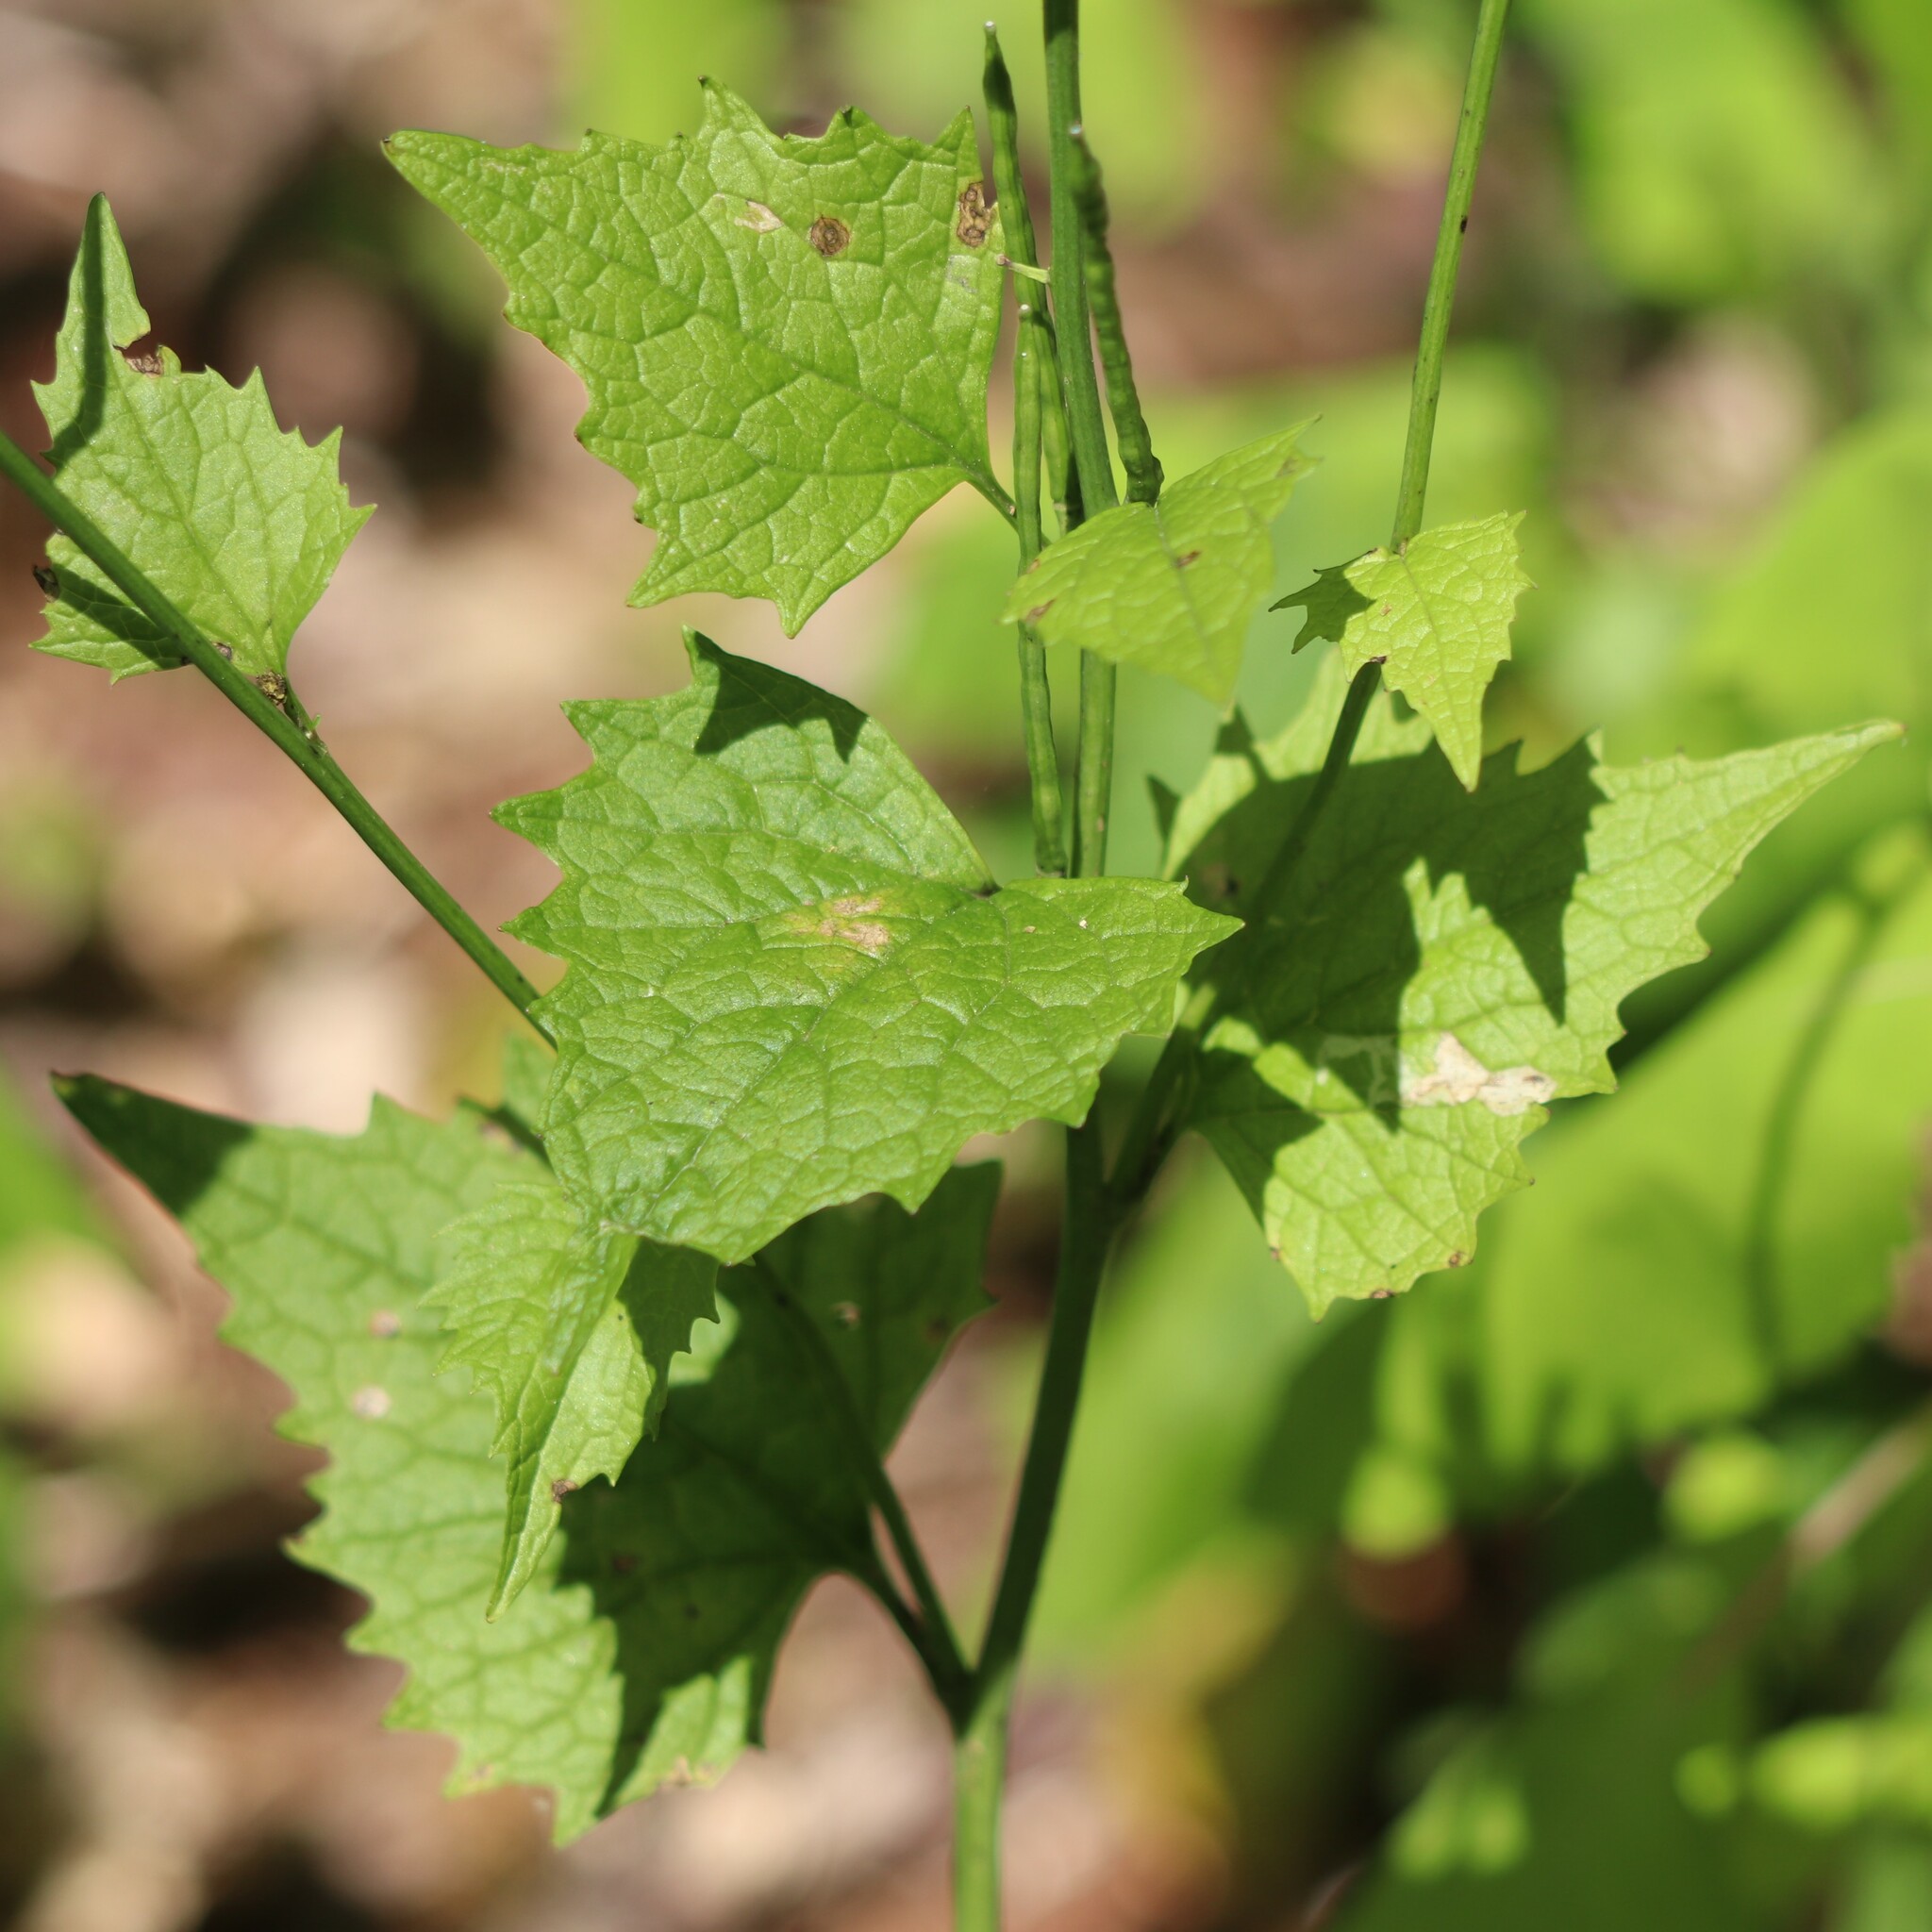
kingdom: Plantae
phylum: Tracheophyta
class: Magnoliopsida
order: Brassicales
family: Brassicaceae
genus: Alliaria
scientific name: Alliaria petiolata
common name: Garlic mustard
